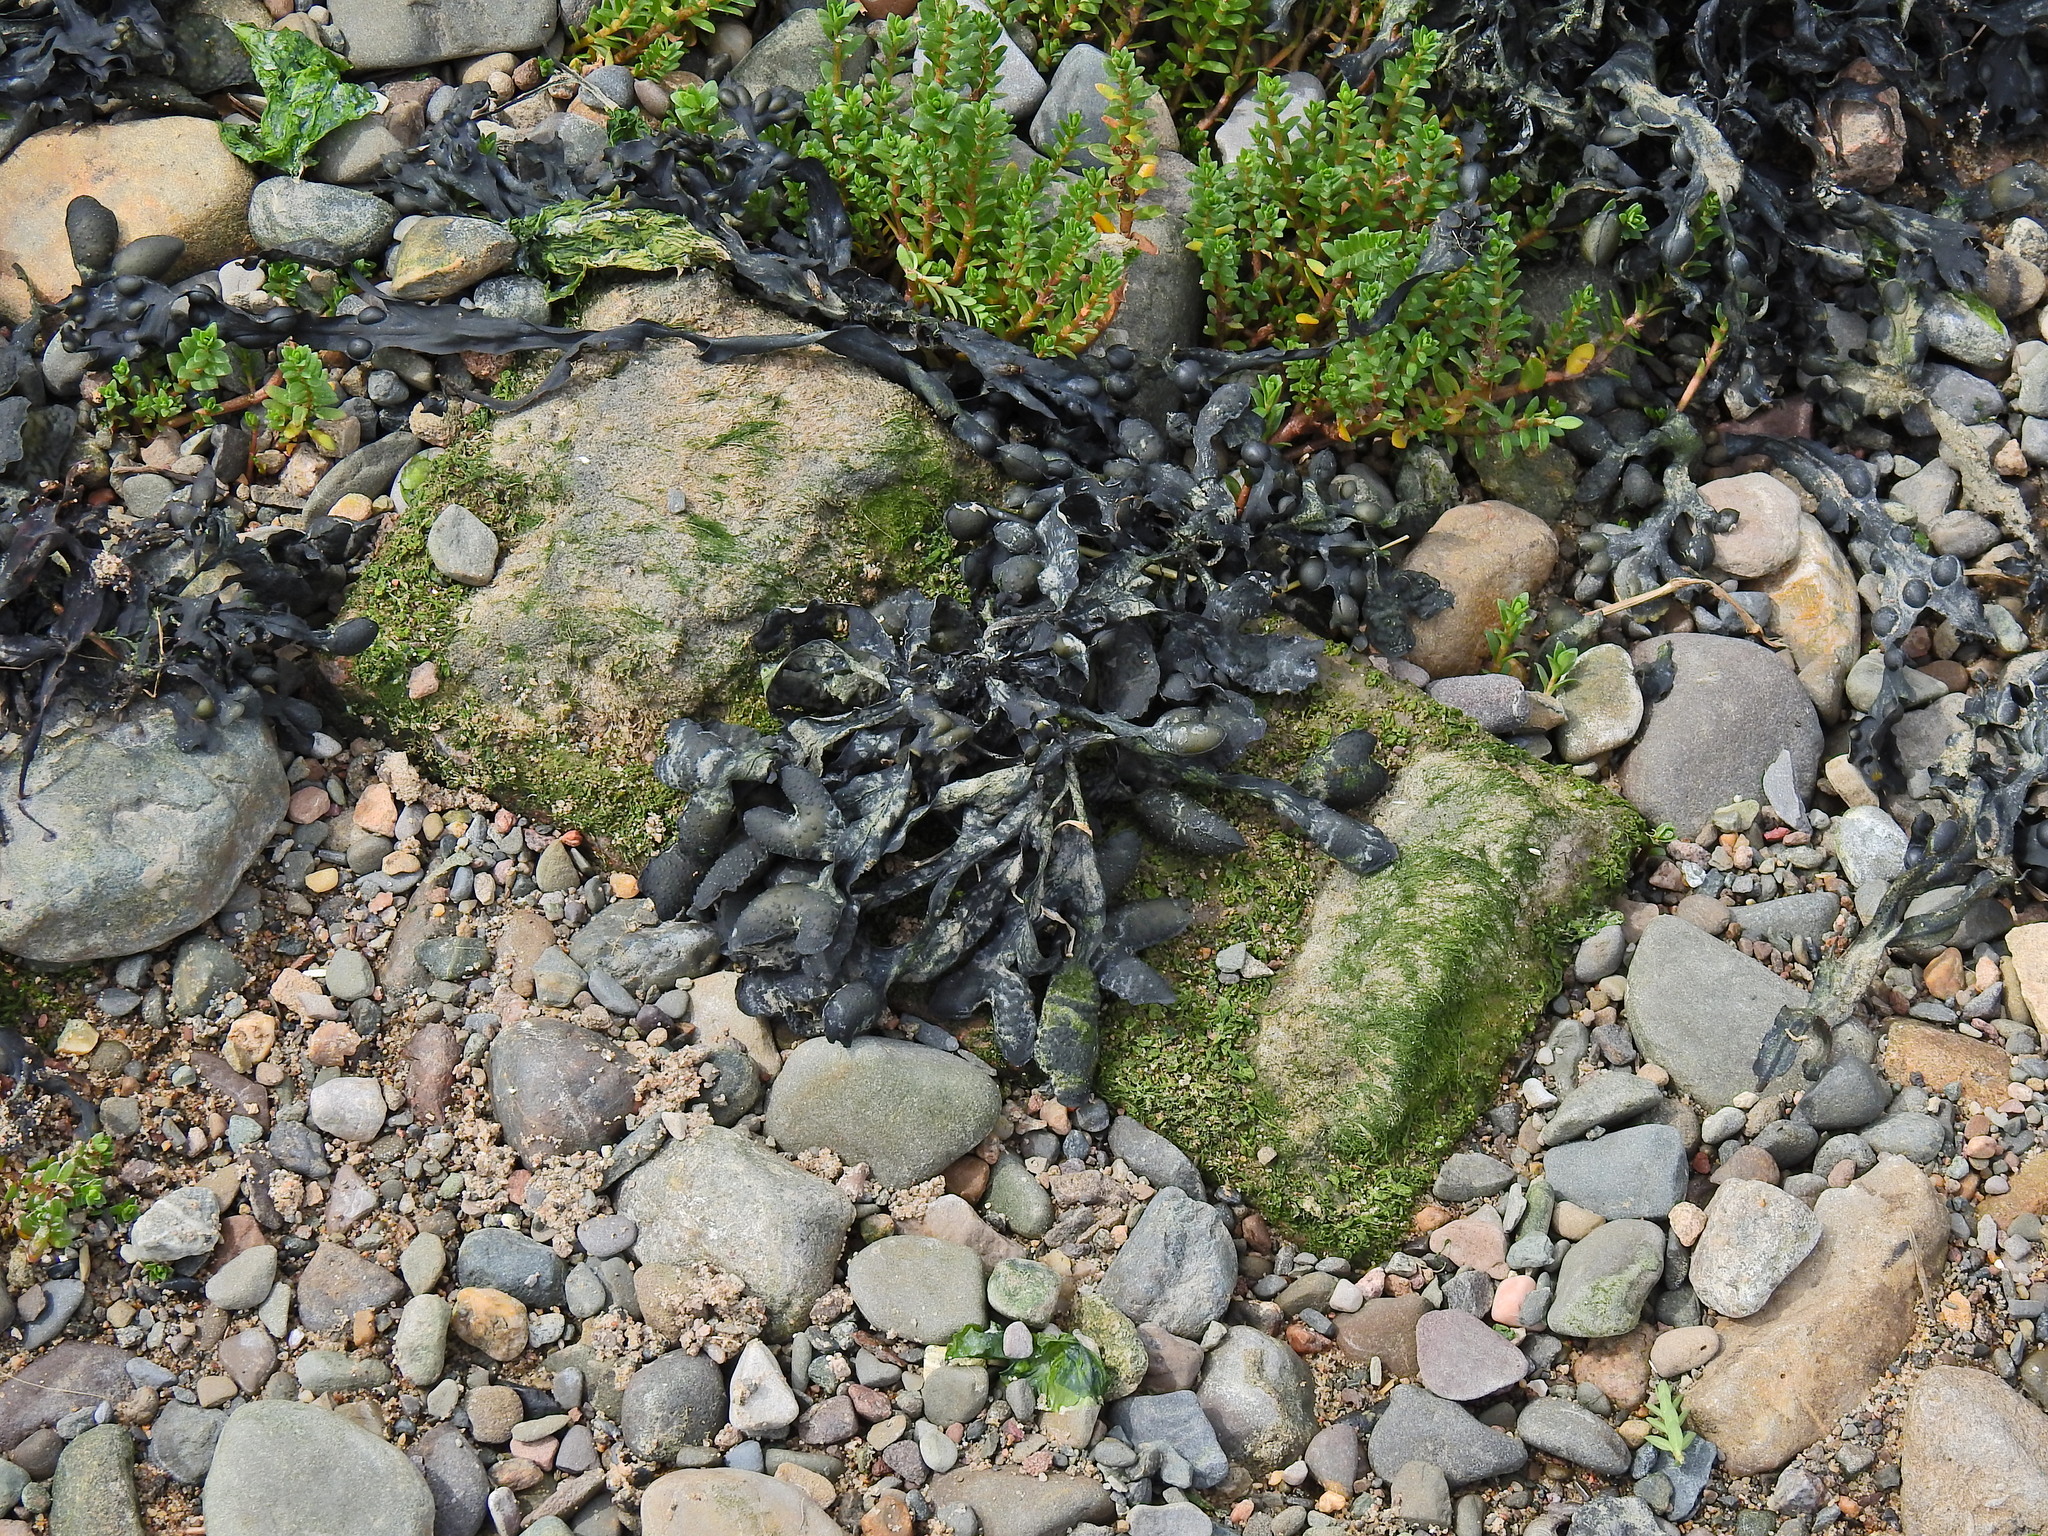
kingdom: Chromista
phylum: Ochrophyta
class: Phaeophyceae
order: Fucales
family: Fucaceae
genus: Fucus
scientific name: Fucus vesiculosus
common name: Bladder wrack
